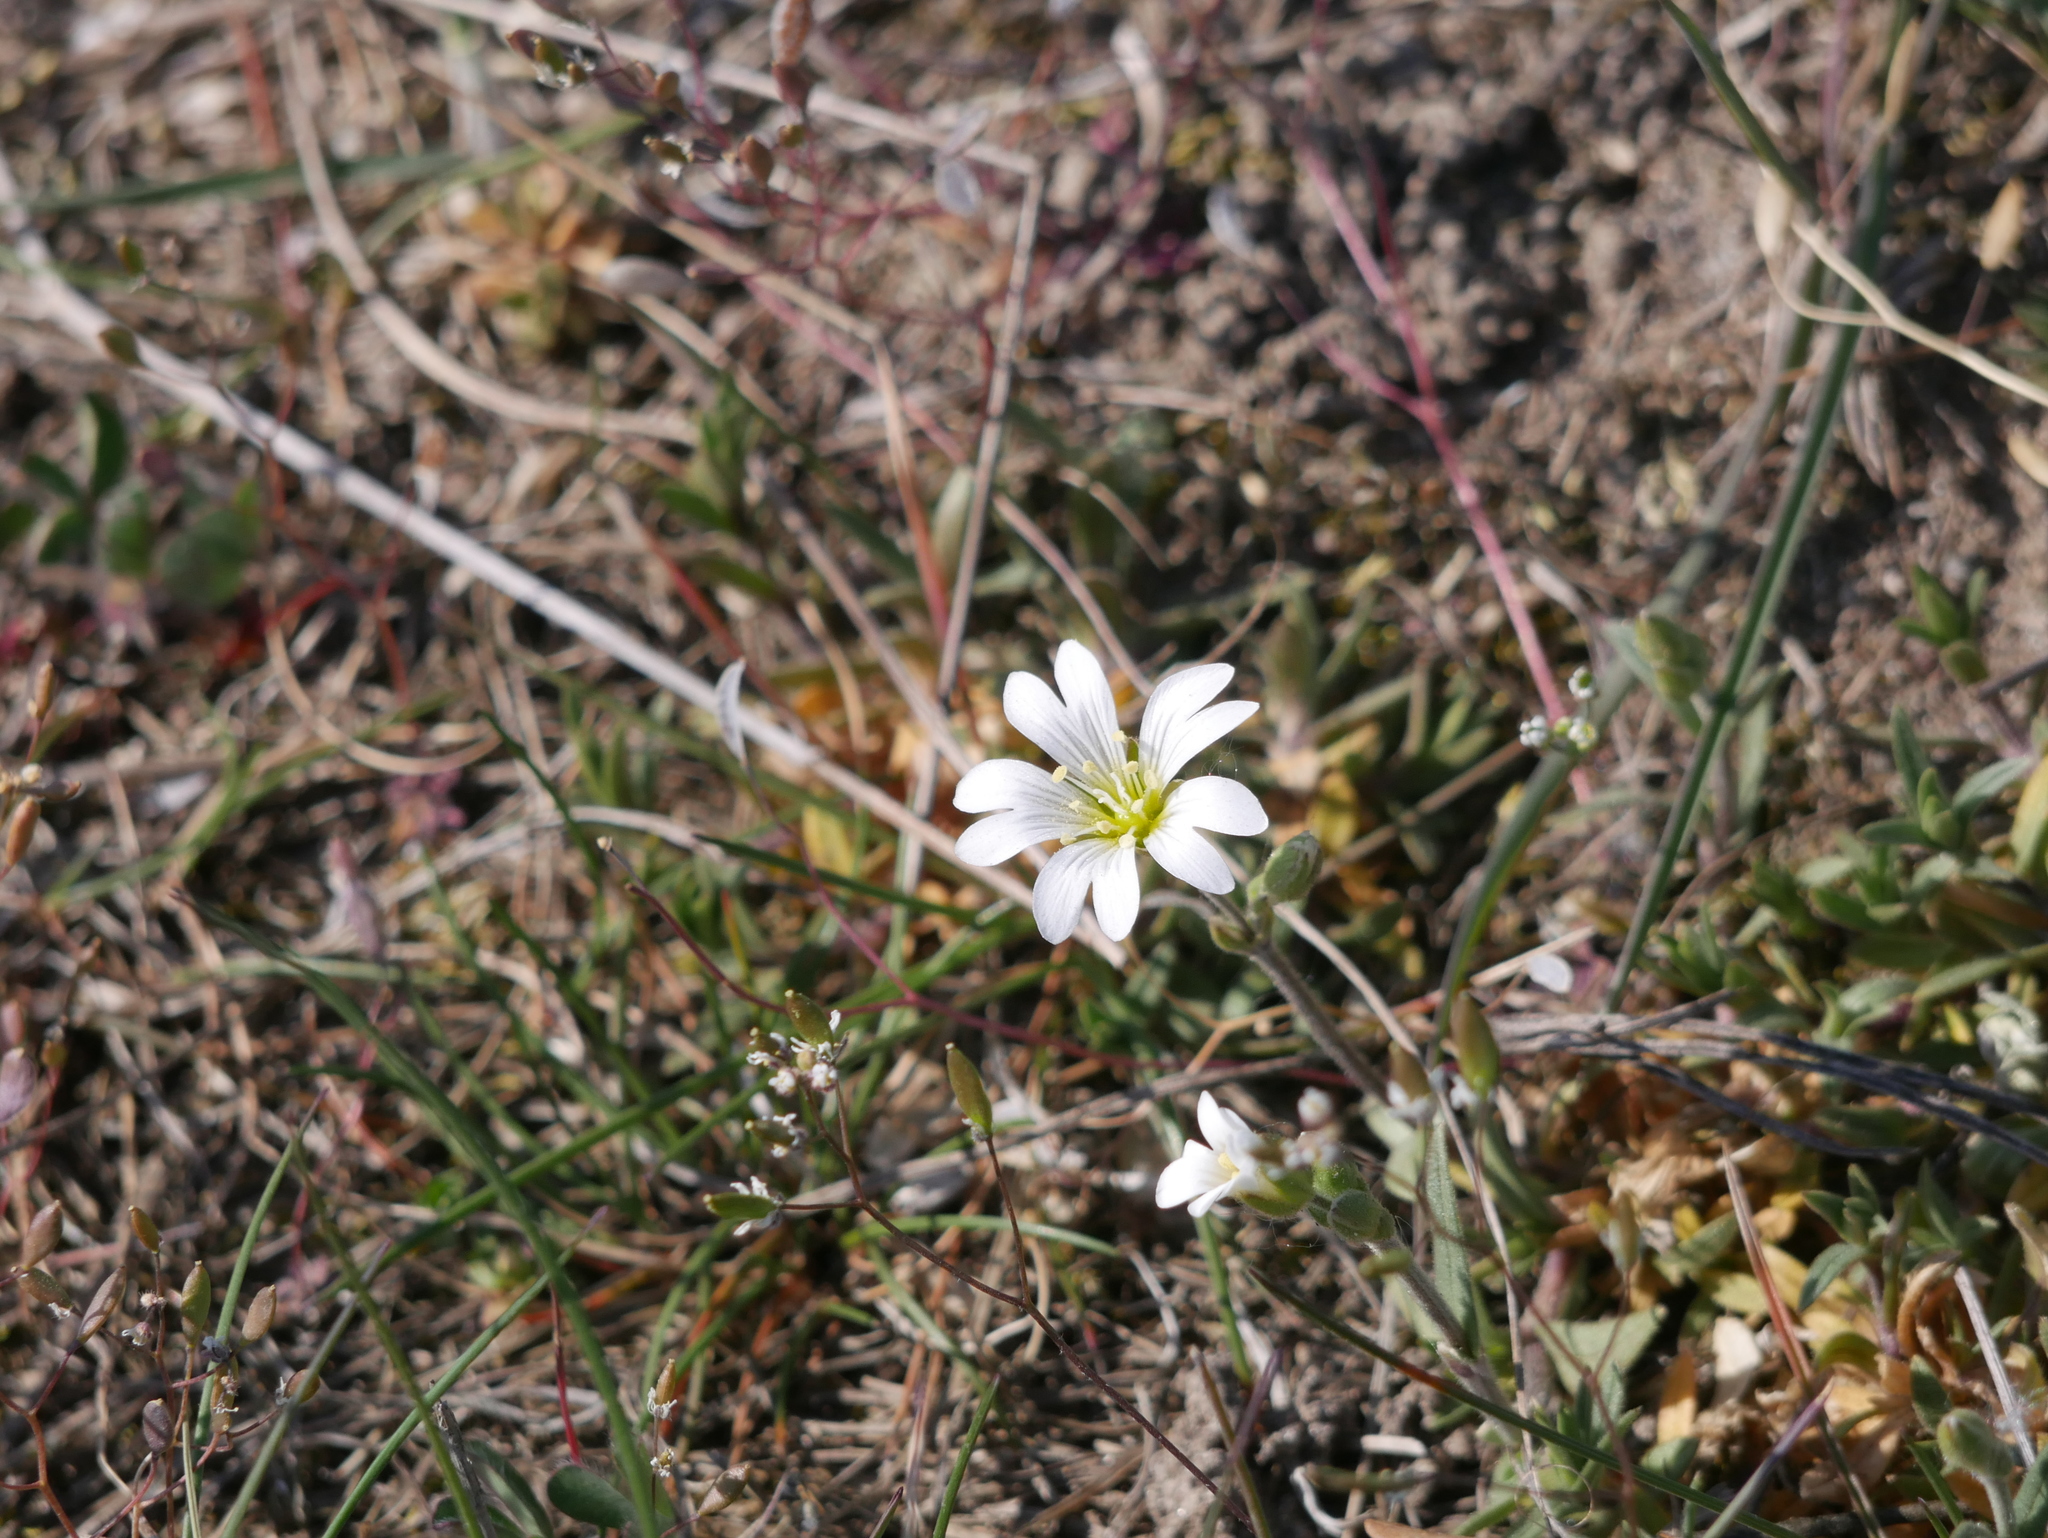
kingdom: Plantae
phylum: Tracheophyta
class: Magnoliopsida
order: Caryophyllales
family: Caryophyllaceae
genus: Cerastium
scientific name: Cerastium arvense
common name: Field mouse-ear
